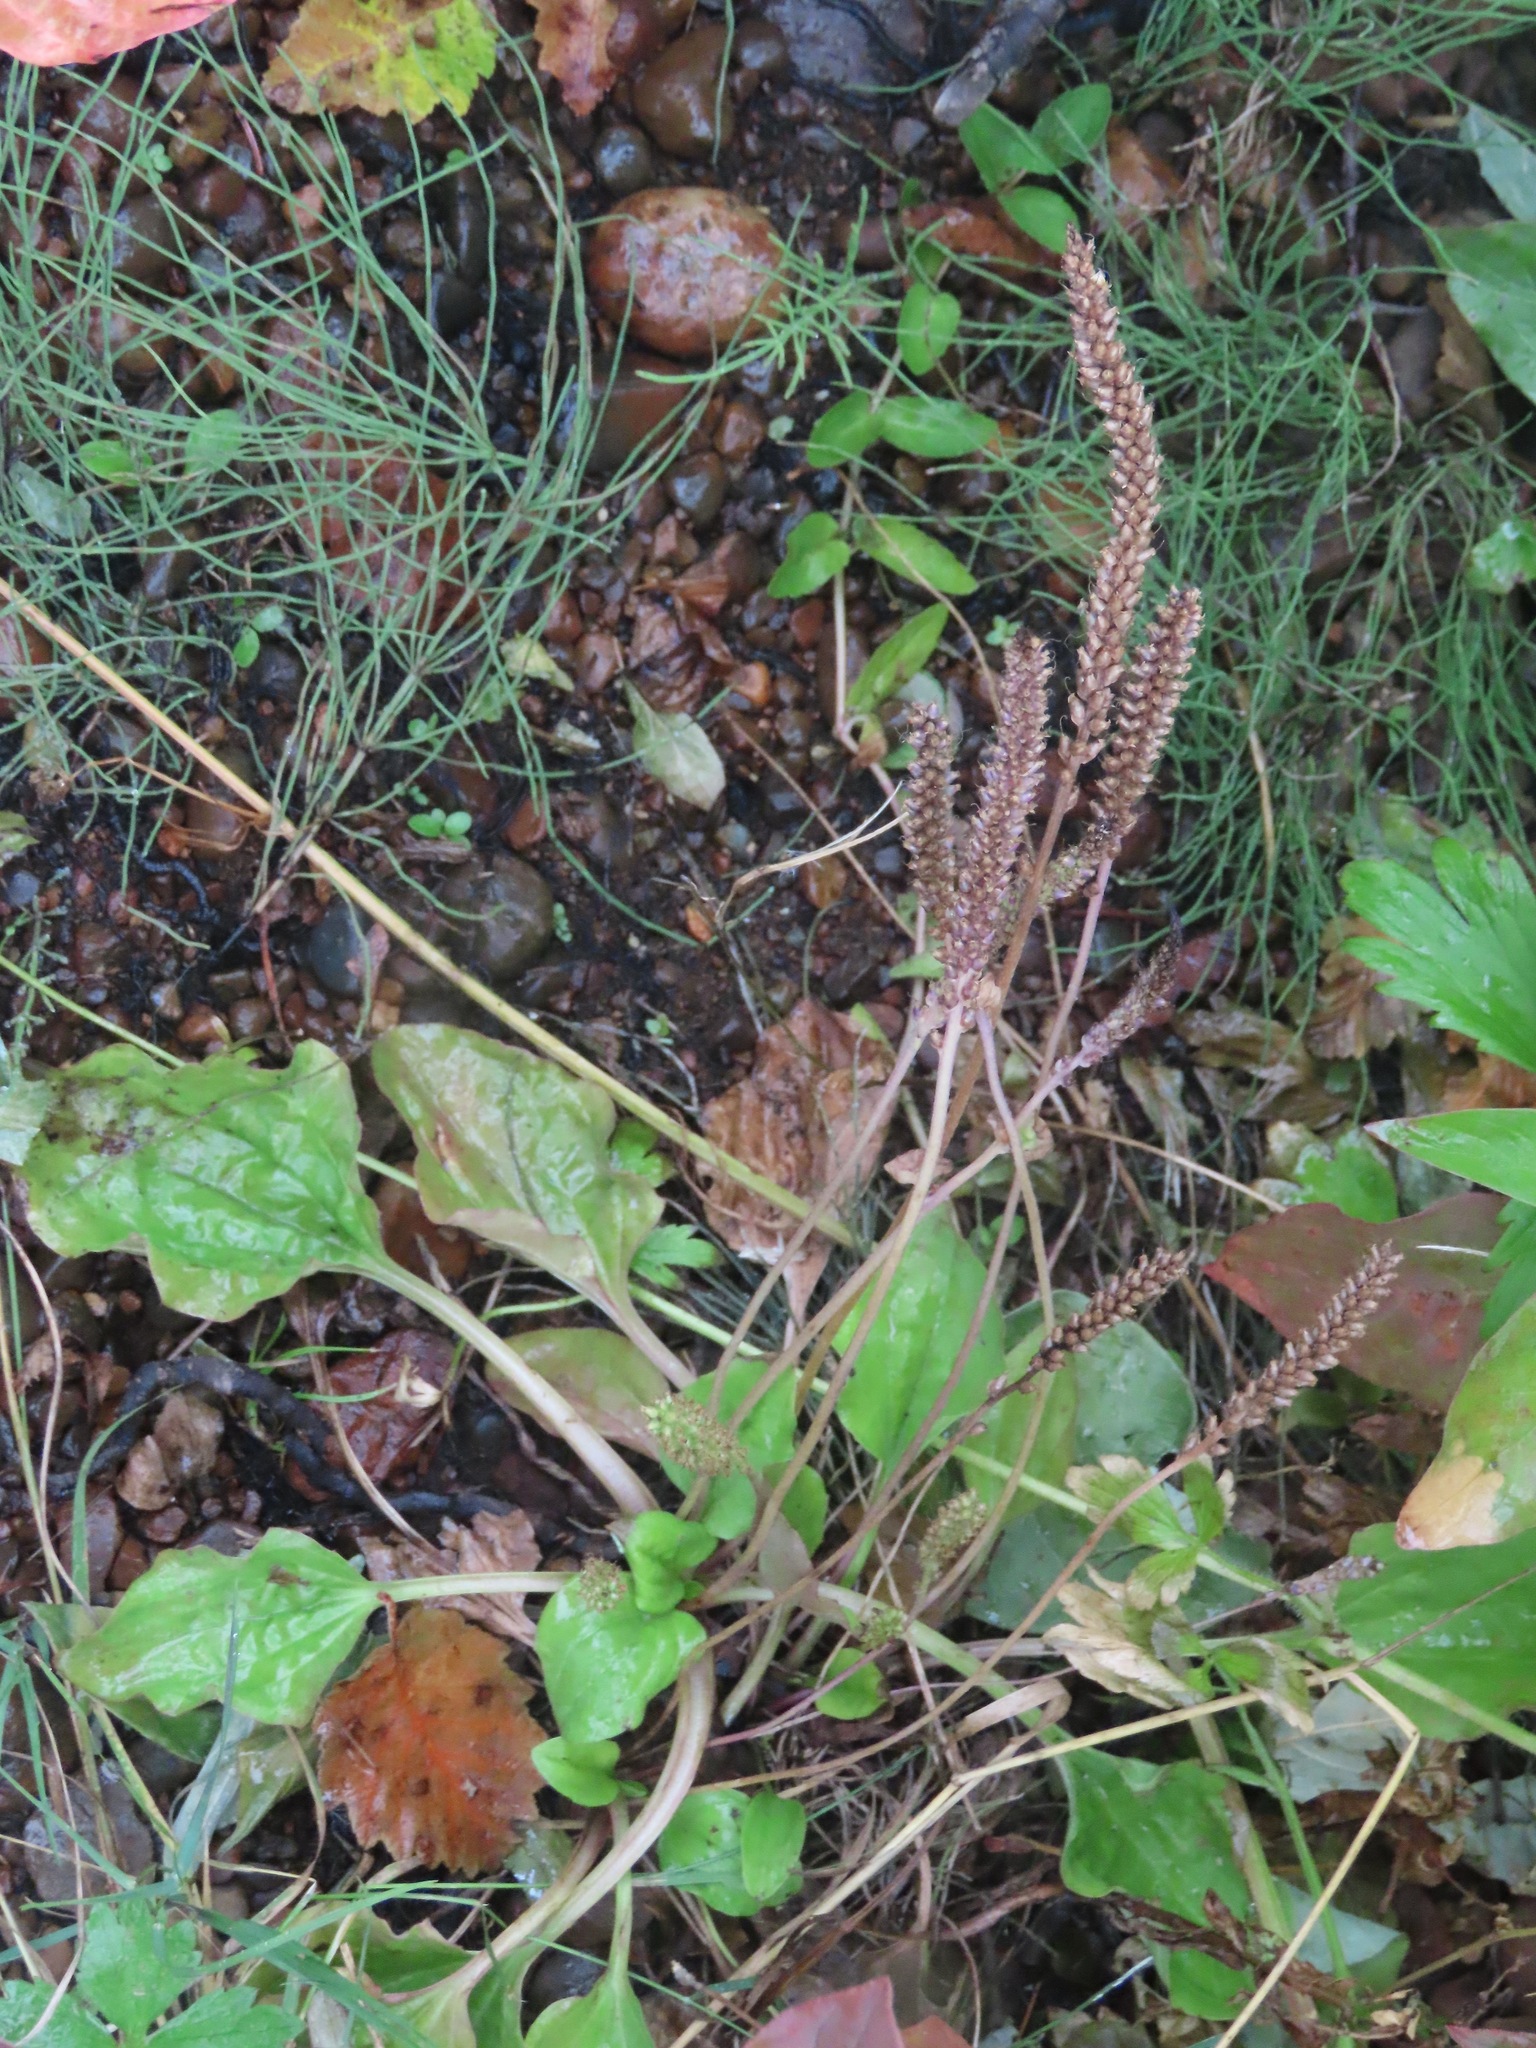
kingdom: Plantae
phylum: Tracheophyta
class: Magnoliopsida
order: Lamiales
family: Plantaginaceae
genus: Plantago
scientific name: Plantago major
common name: Common plantain
